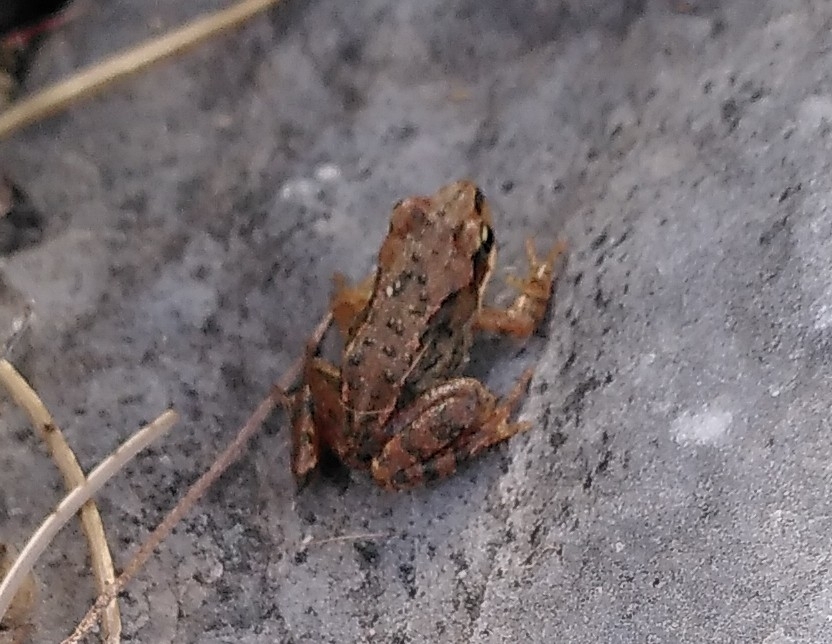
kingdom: Animalia
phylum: Chordata
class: Amphibia
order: Anura
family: Ranidae
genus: Rana
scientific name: Rana temporaria
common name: Common frog
